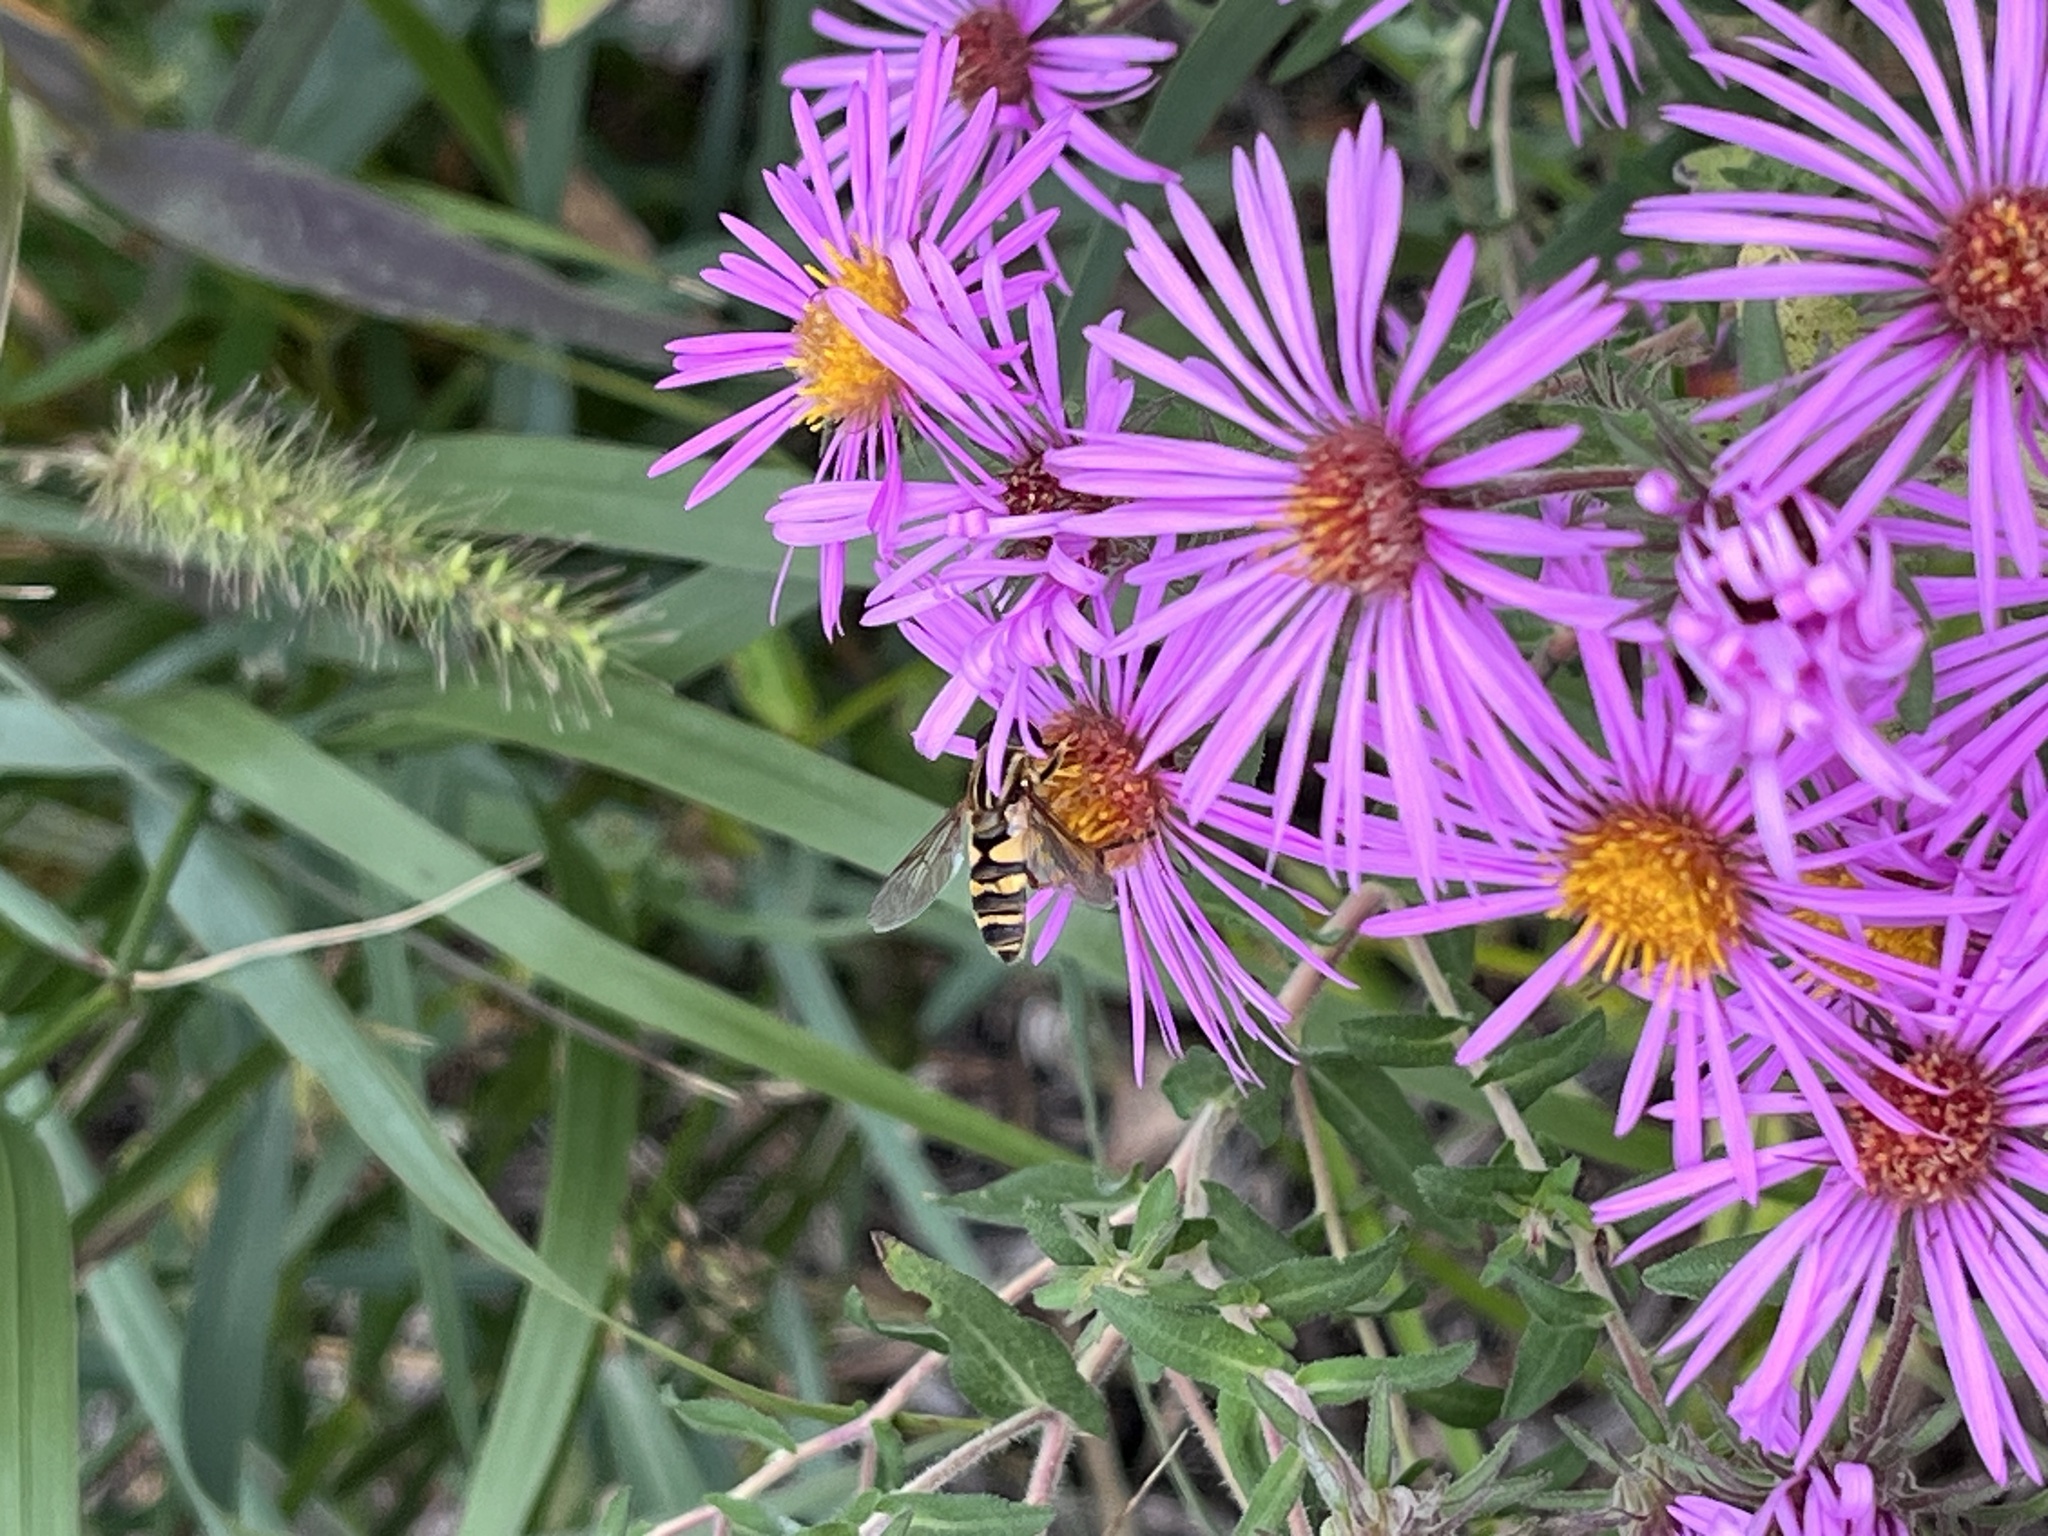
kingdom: Animalia
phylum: Arthropoda
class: Insecta
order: Diptera
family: Syrphidae
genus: Helophilus
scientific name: Helophilus fasciatus
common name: Narrow-headed marsh fly
